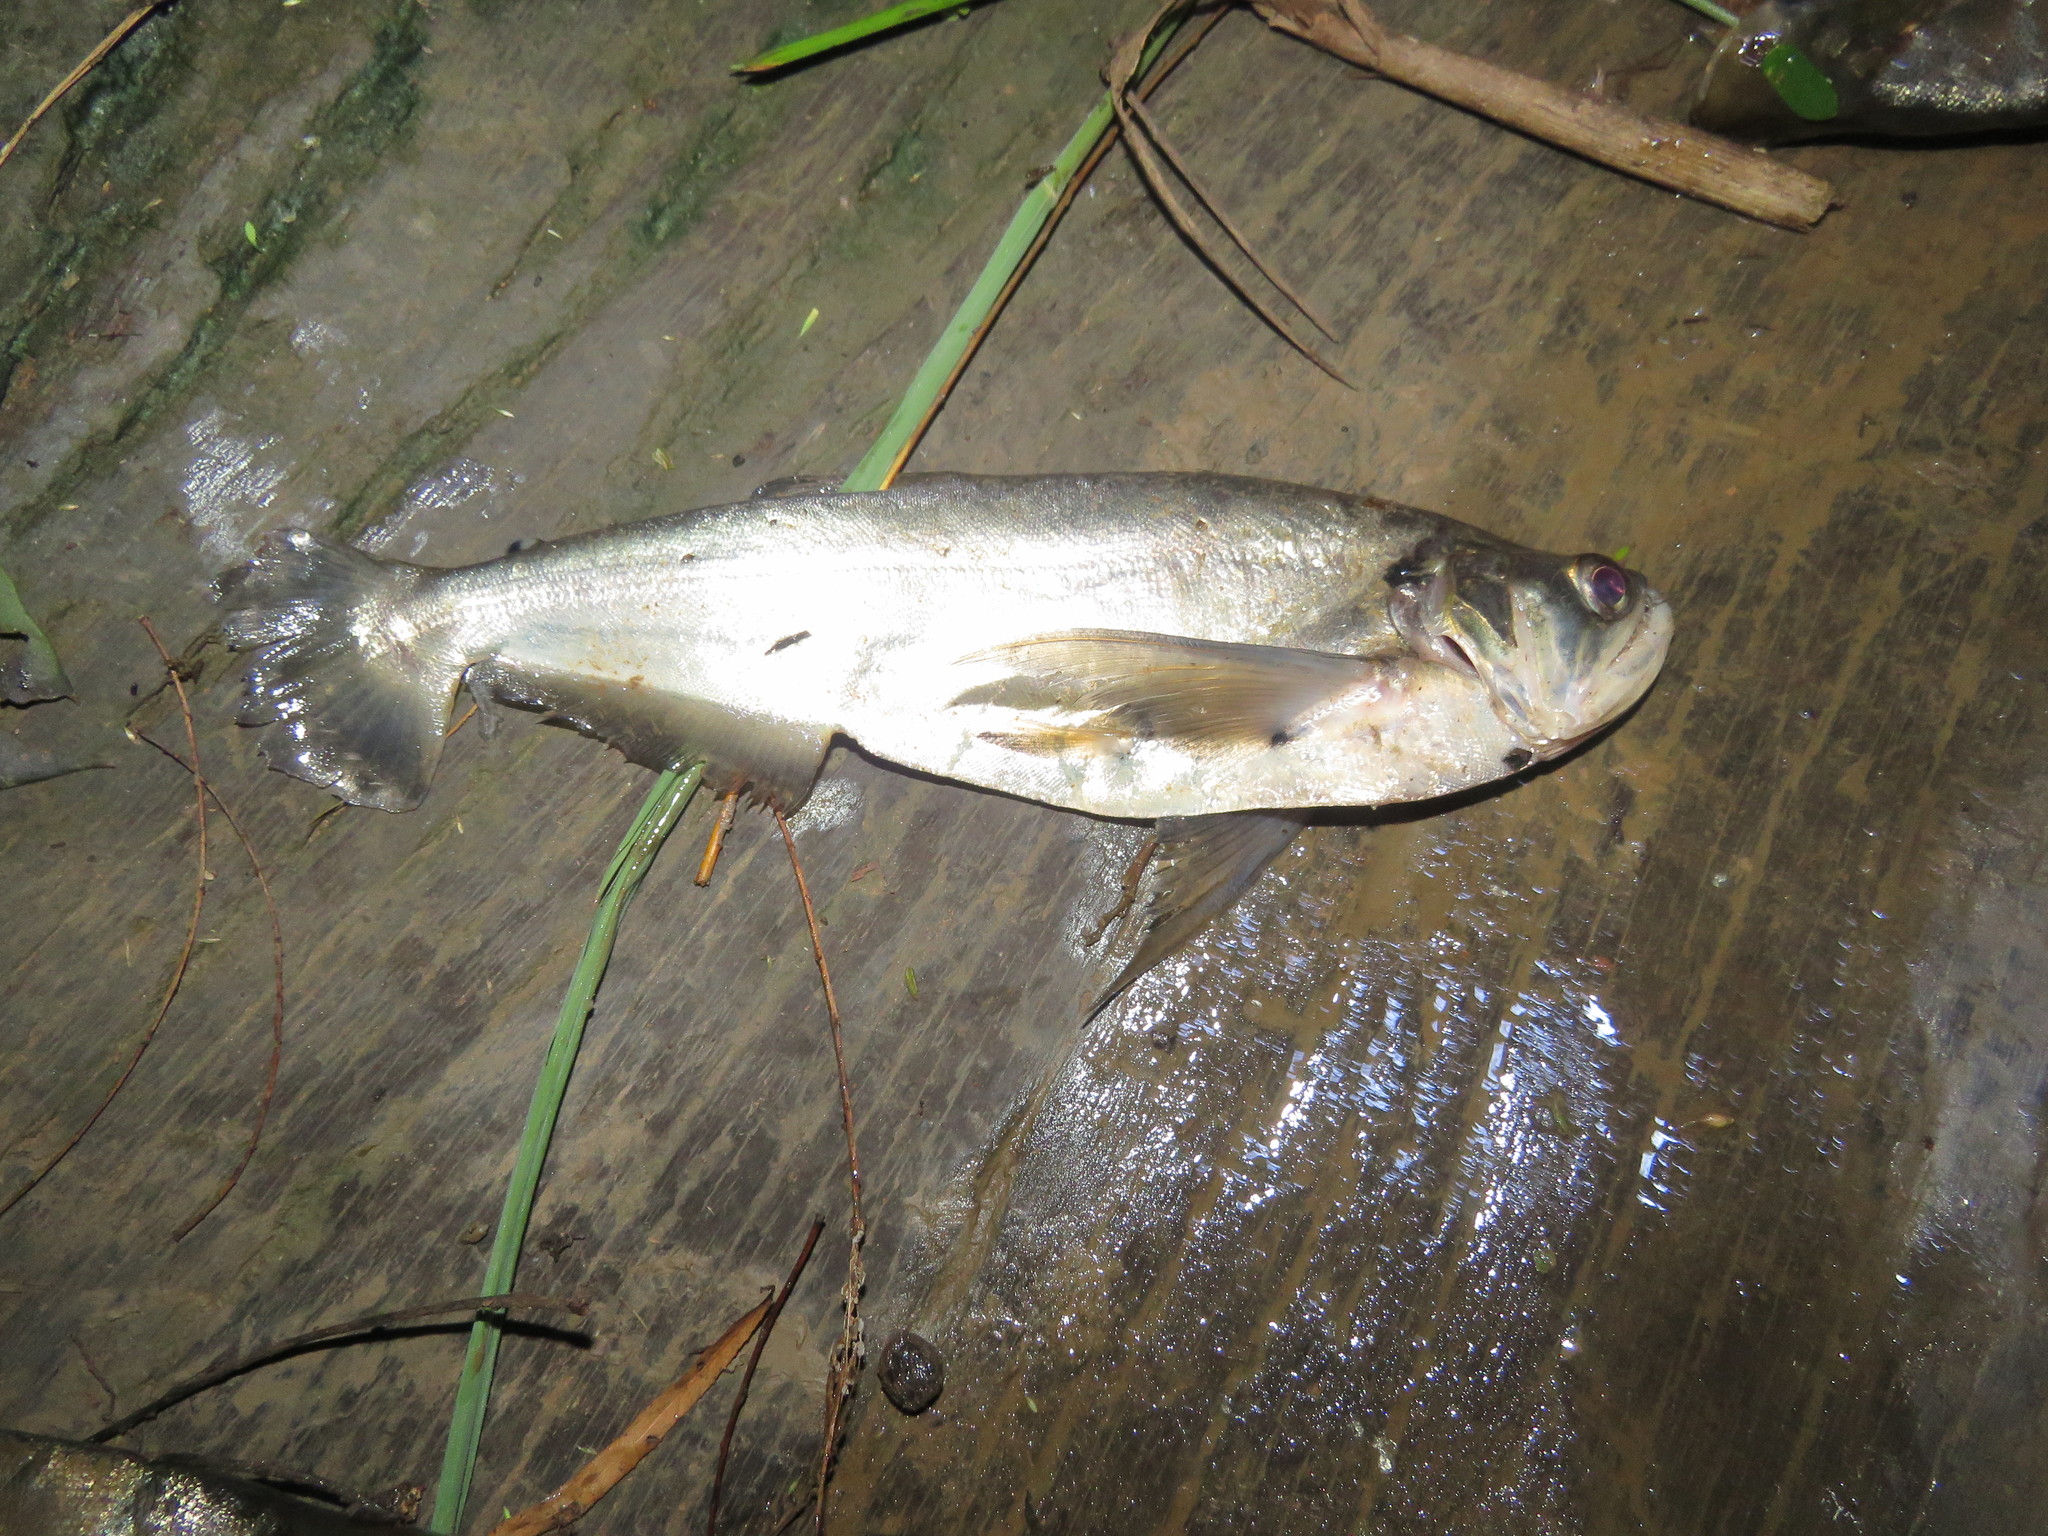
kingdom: Animalia
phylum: Chordata
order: Characiformes
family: Cynodontidae
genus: Hydrolycus
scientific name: Hydrolycus scomberoides
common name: Payara
